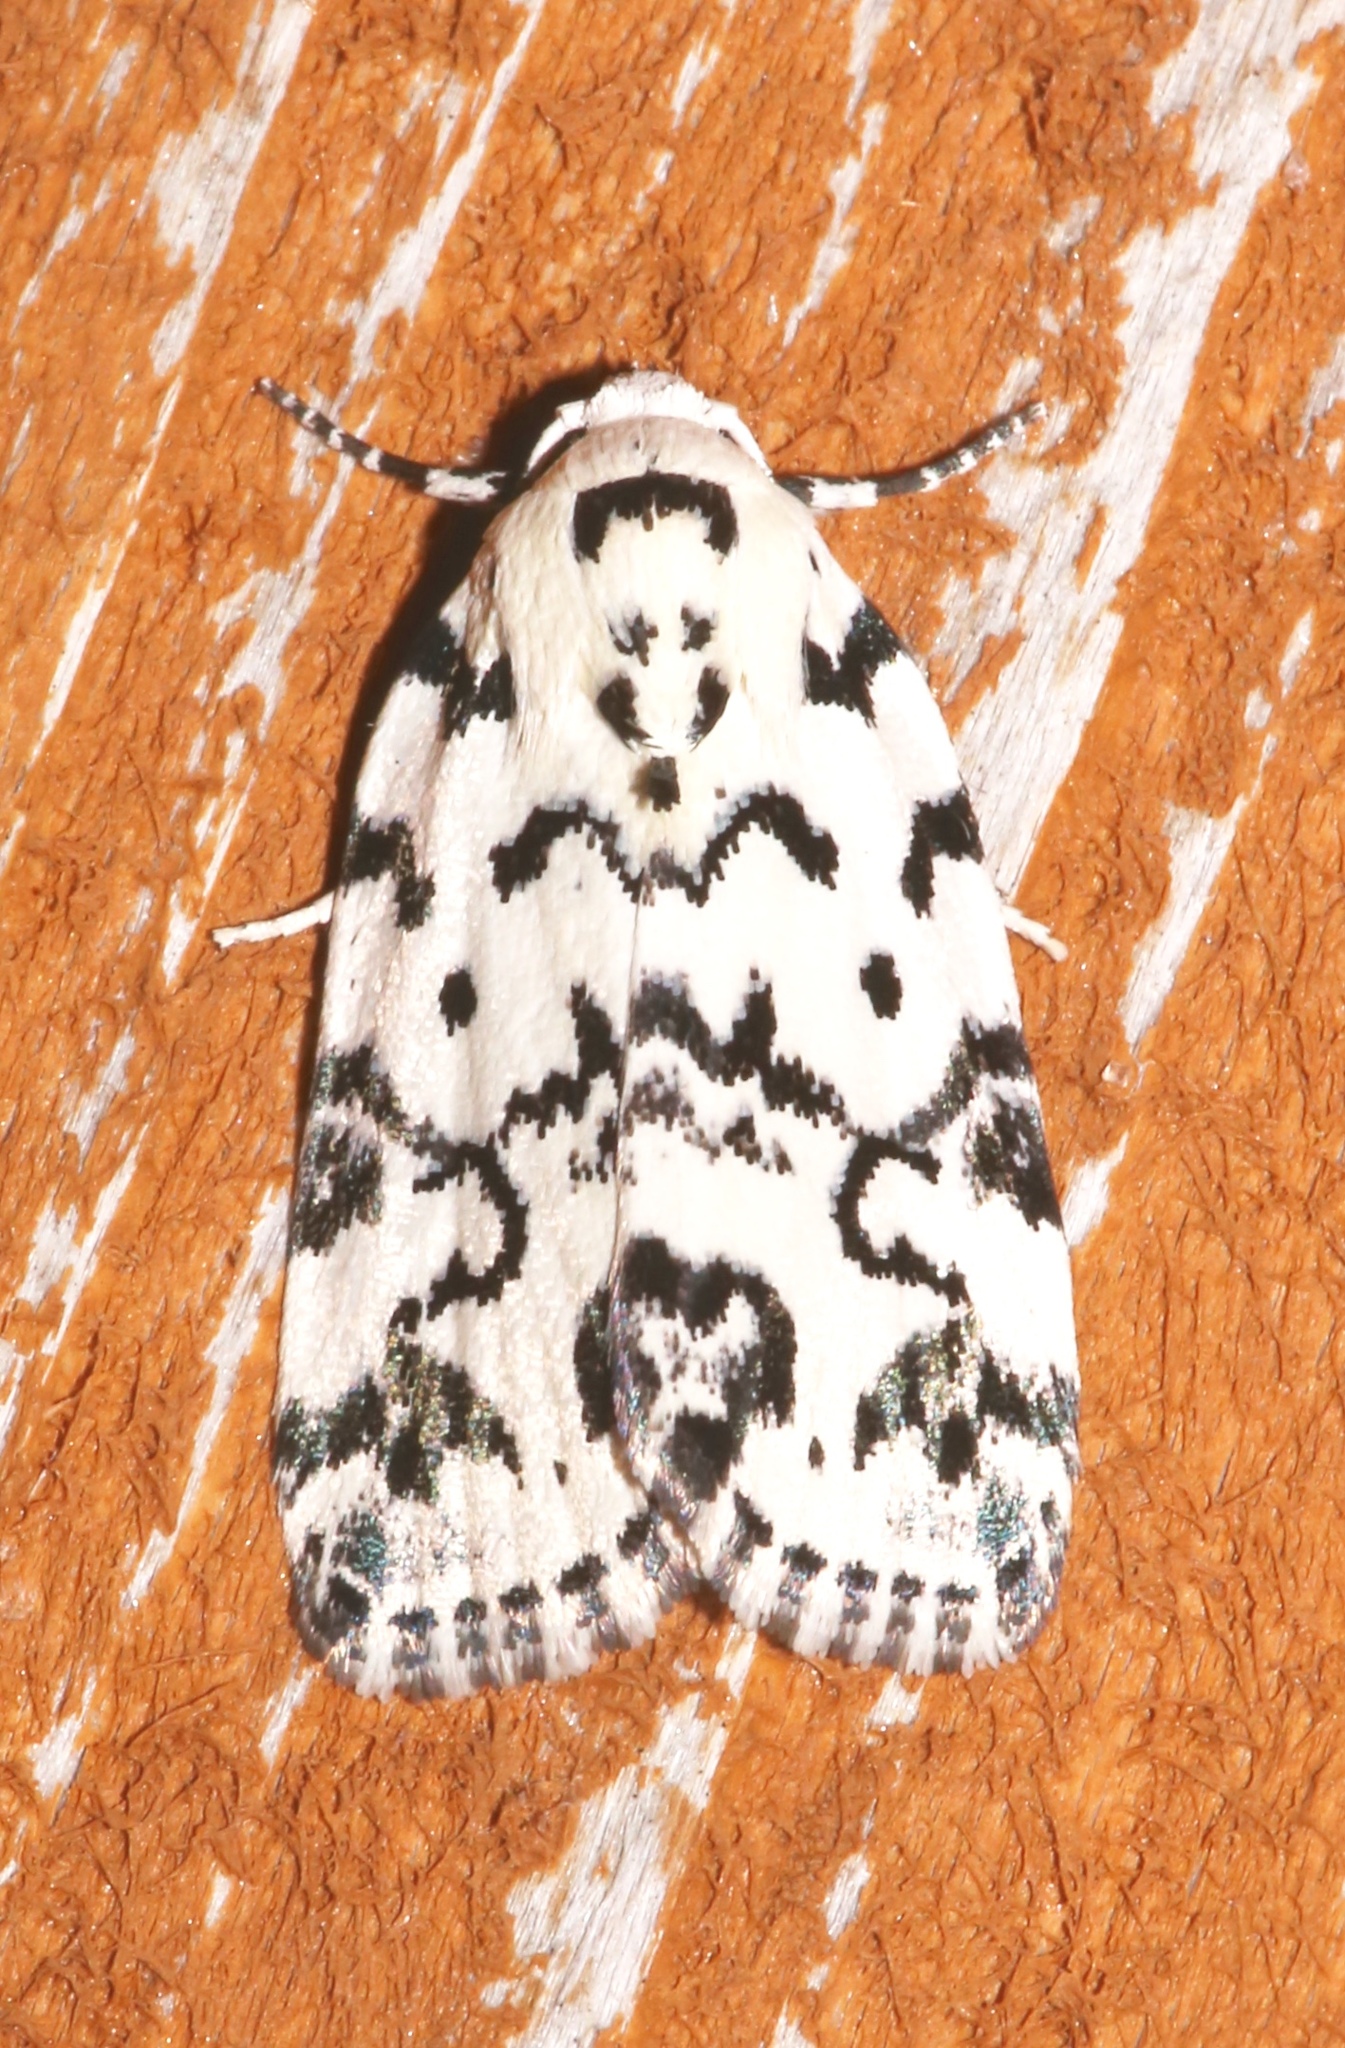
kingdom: Animalia
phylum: Arthropoda
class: Insecta
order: Lepidoptera
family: Noctuidae
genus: Polygrammate
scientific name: Polygrammate hebraeicum
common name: Hebrew moth
